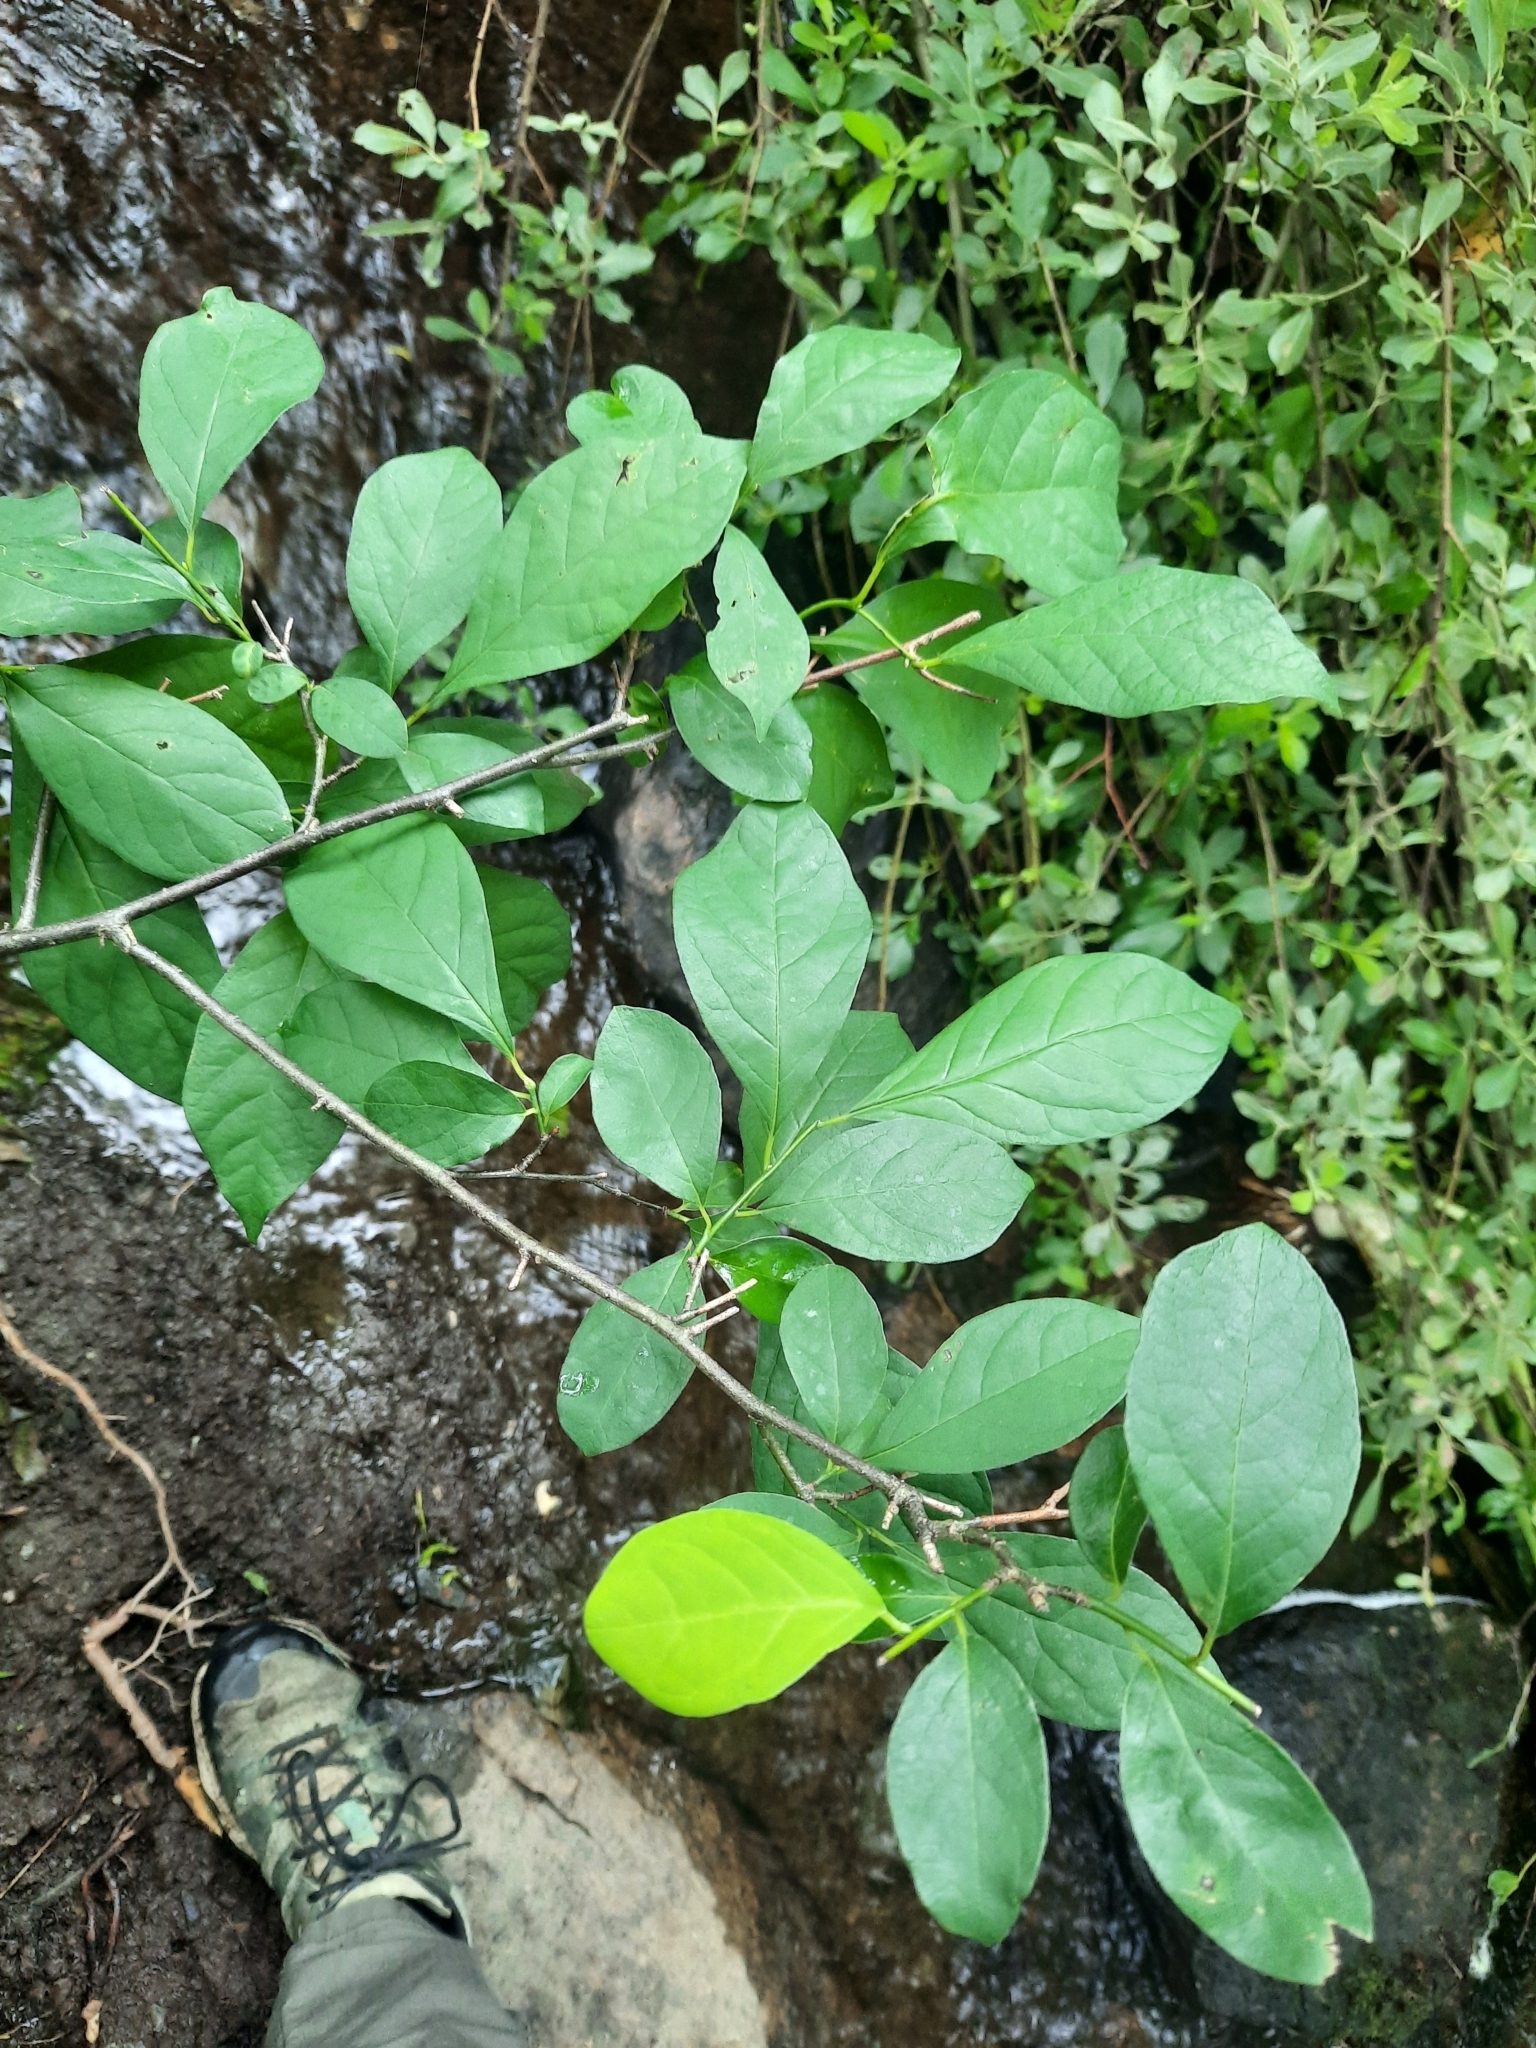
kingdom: Plantae
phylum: Tracheophyta
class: Magnoliopsida
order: Laurales
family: Lauraceae
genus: Lindera
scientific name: Lindera benzoin
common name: Spicebush
